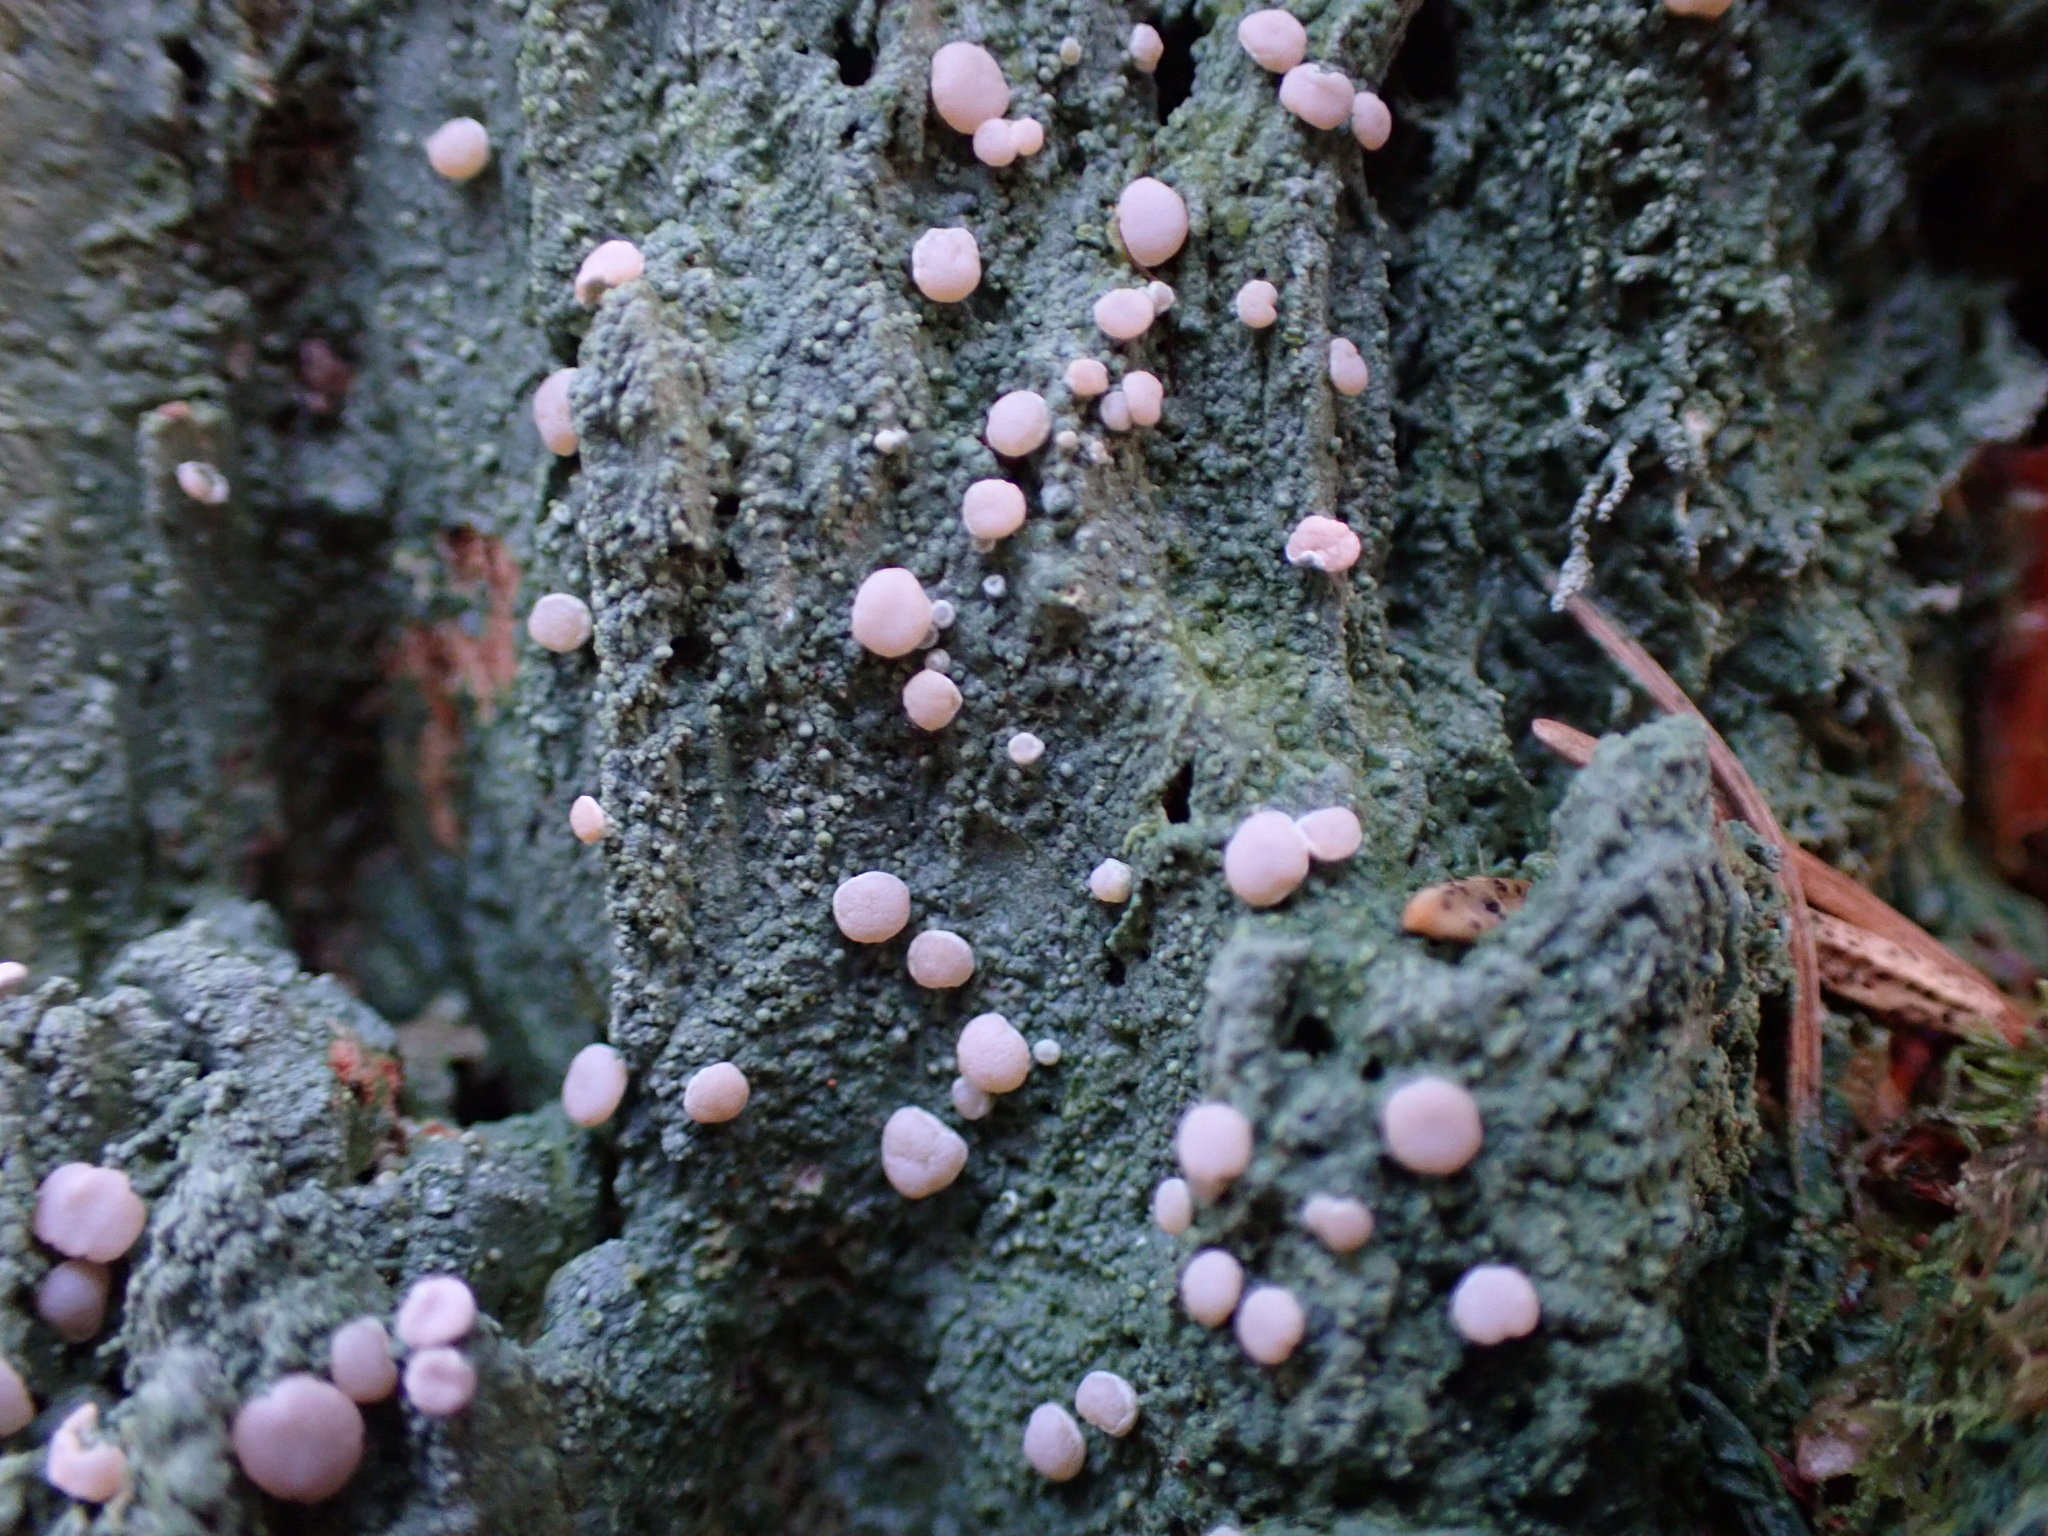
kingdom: Fungi
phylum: Ascomycota
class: Lecanoromycetes
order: Pertusariales
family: Icmadophilaceae
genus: Icmadophila
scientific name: Icmadophila ericetorum
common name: Candy lichen
